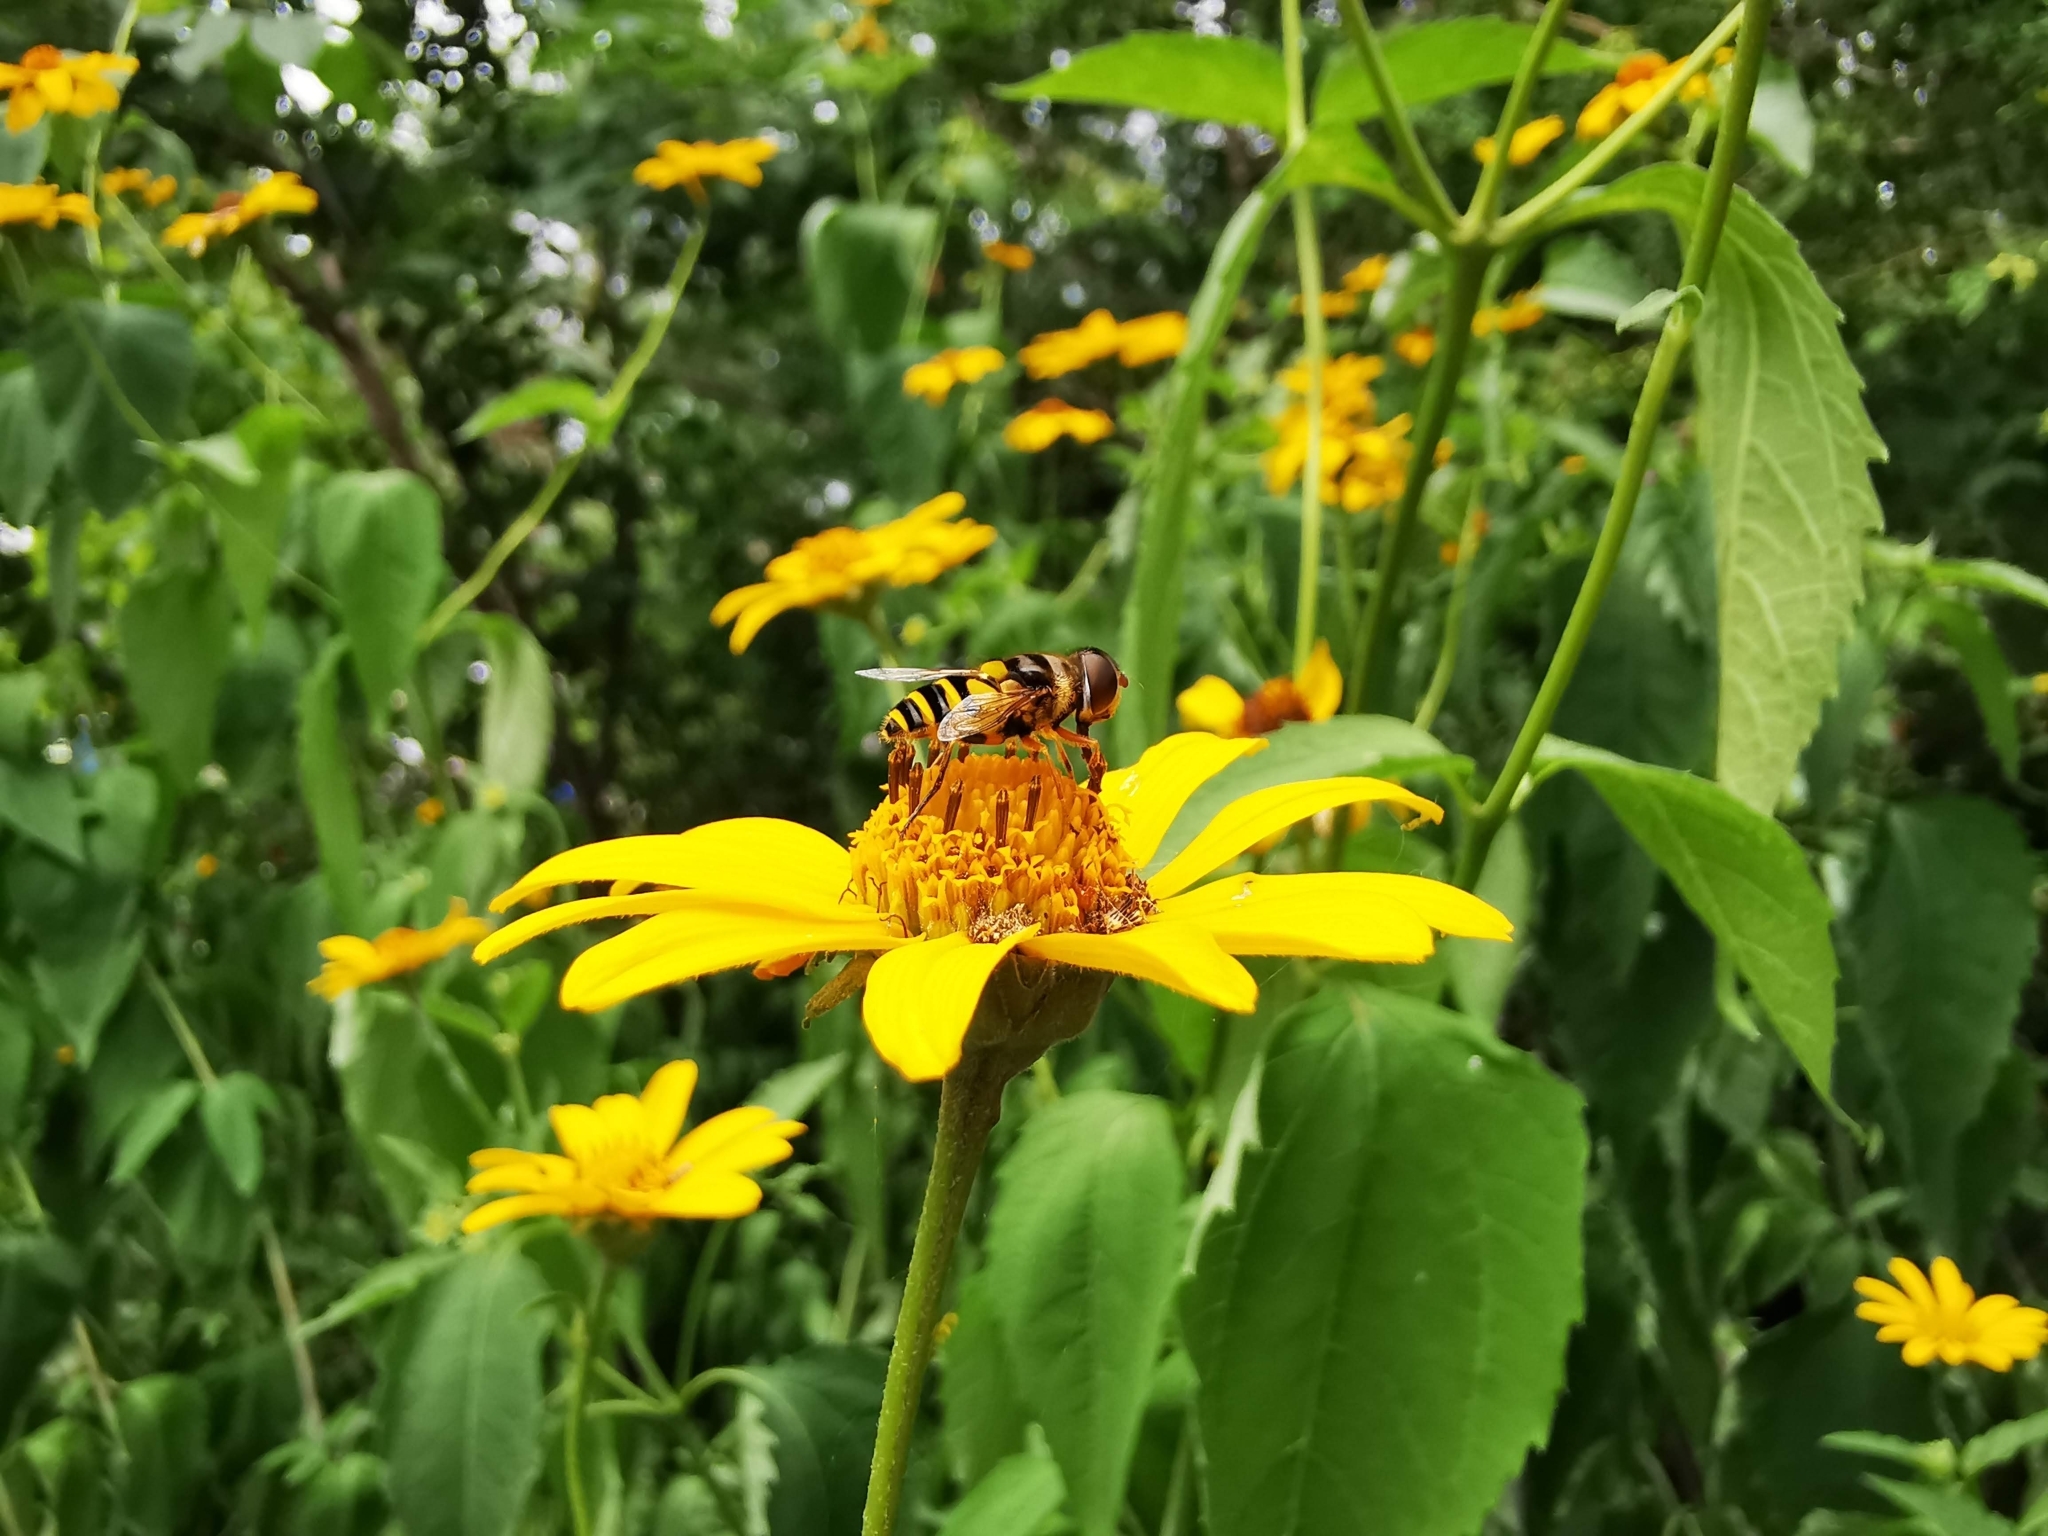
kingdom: Animalia
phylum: Arthropoda
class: Insecta
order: Diptera
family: Syrphidae
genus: Eristalis
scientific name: Eristalis transversa
